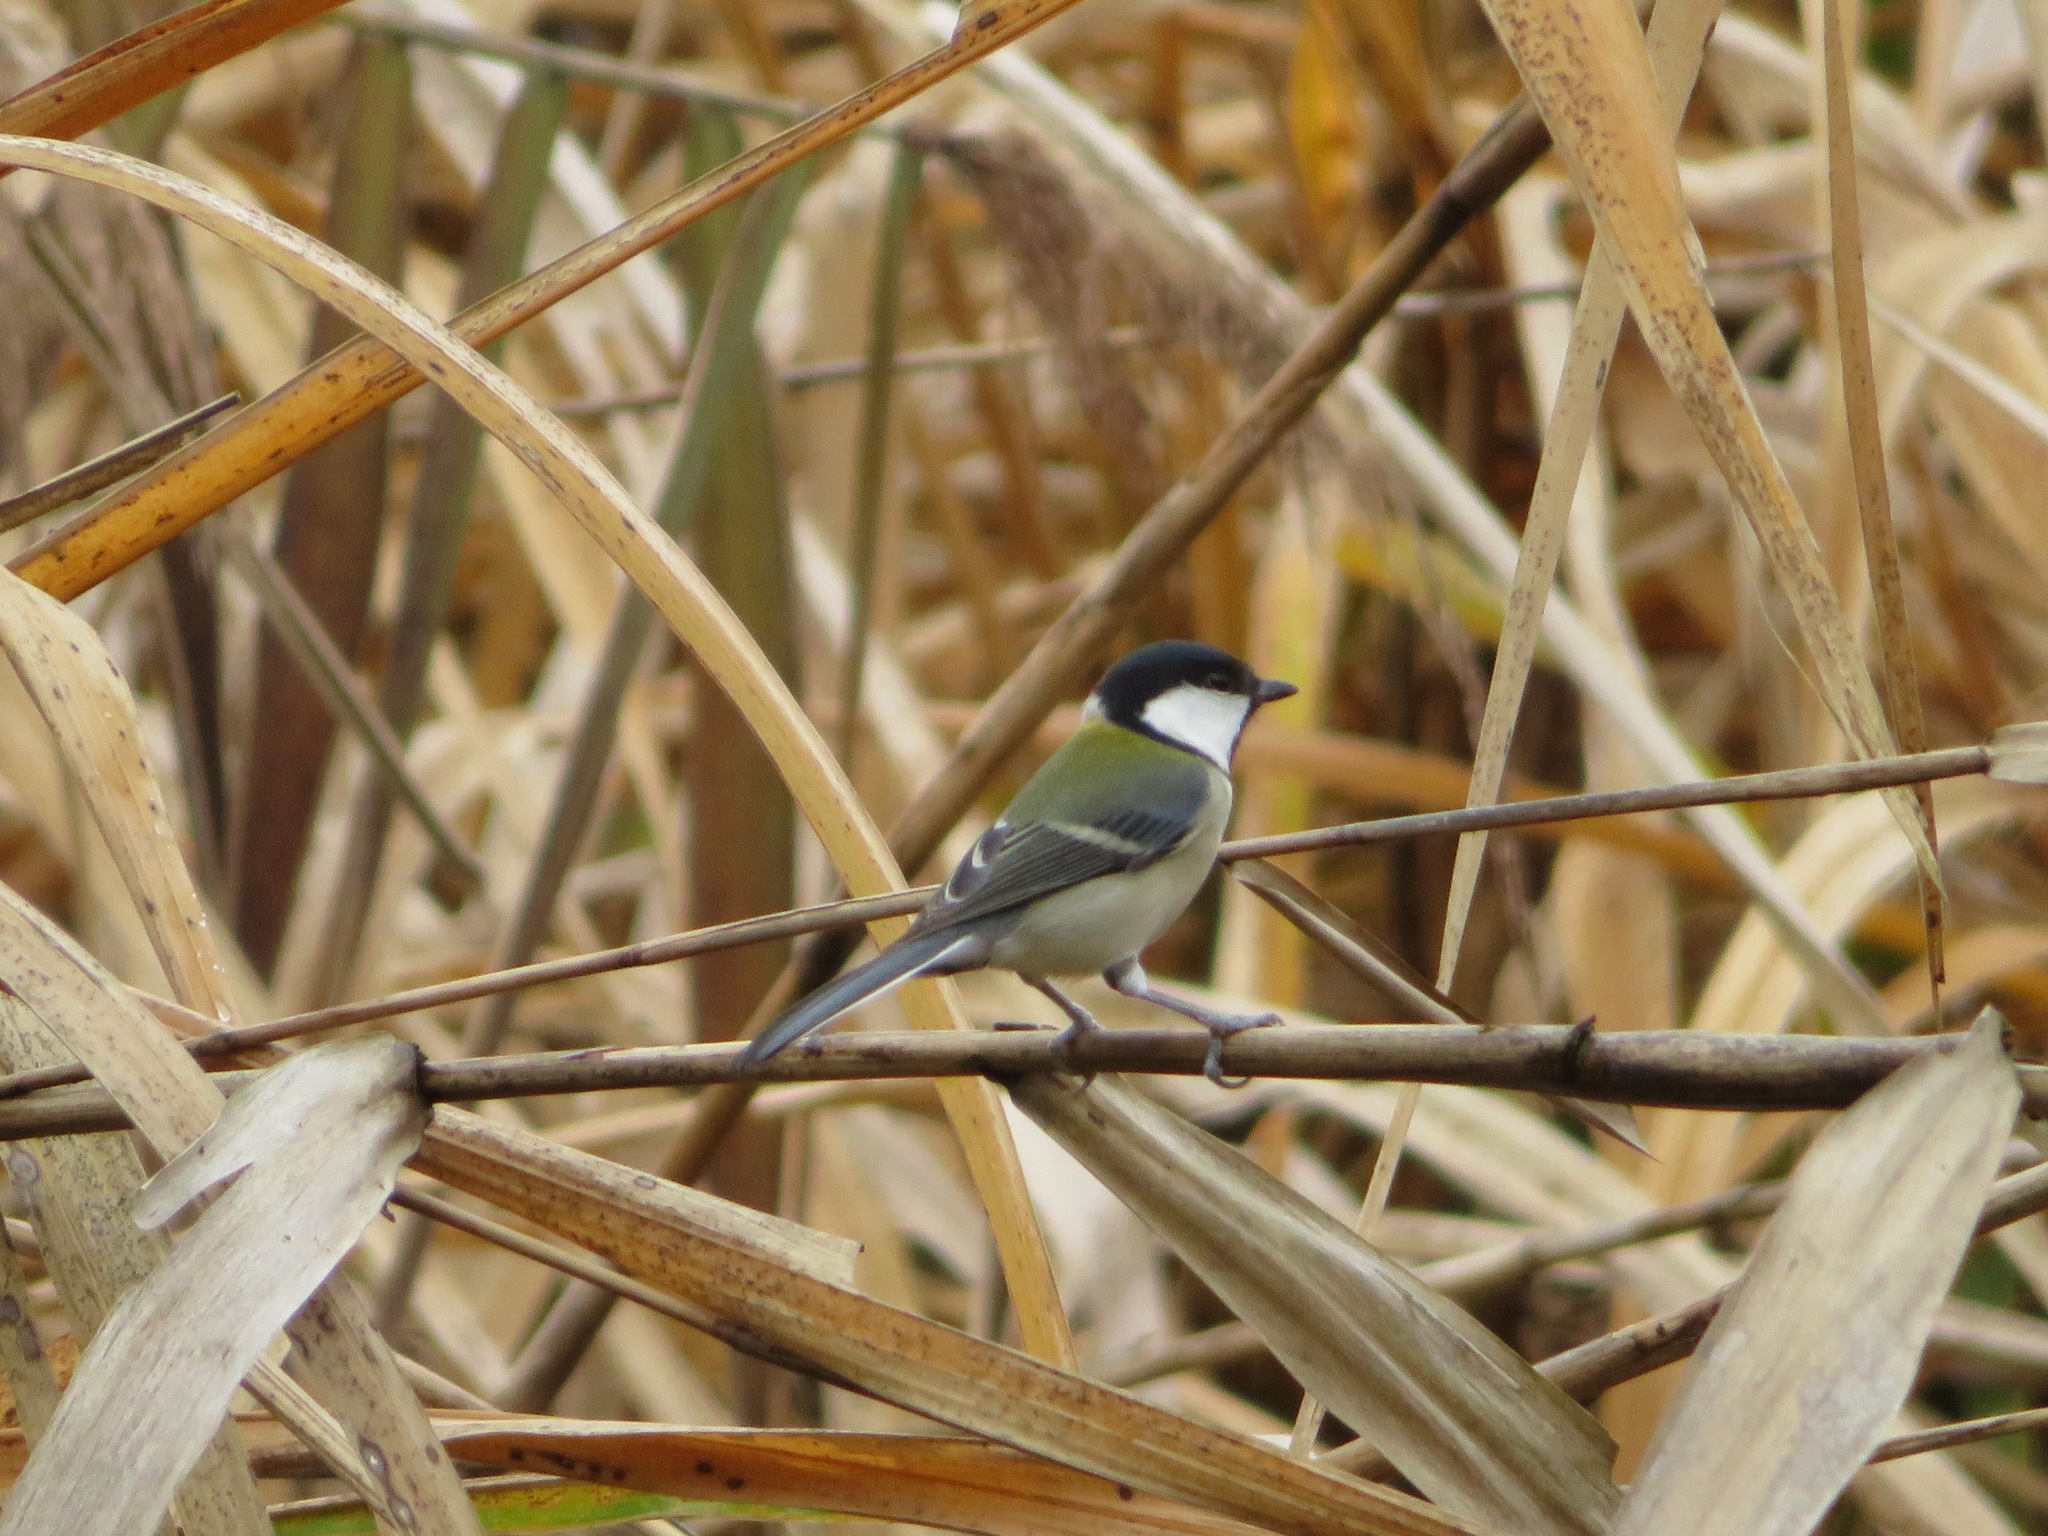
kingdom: Animalia
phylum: Chordata
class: Aves
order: Passeriformes
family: Paridae
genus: Parus
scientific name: Parus minor
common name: Japanese tit
